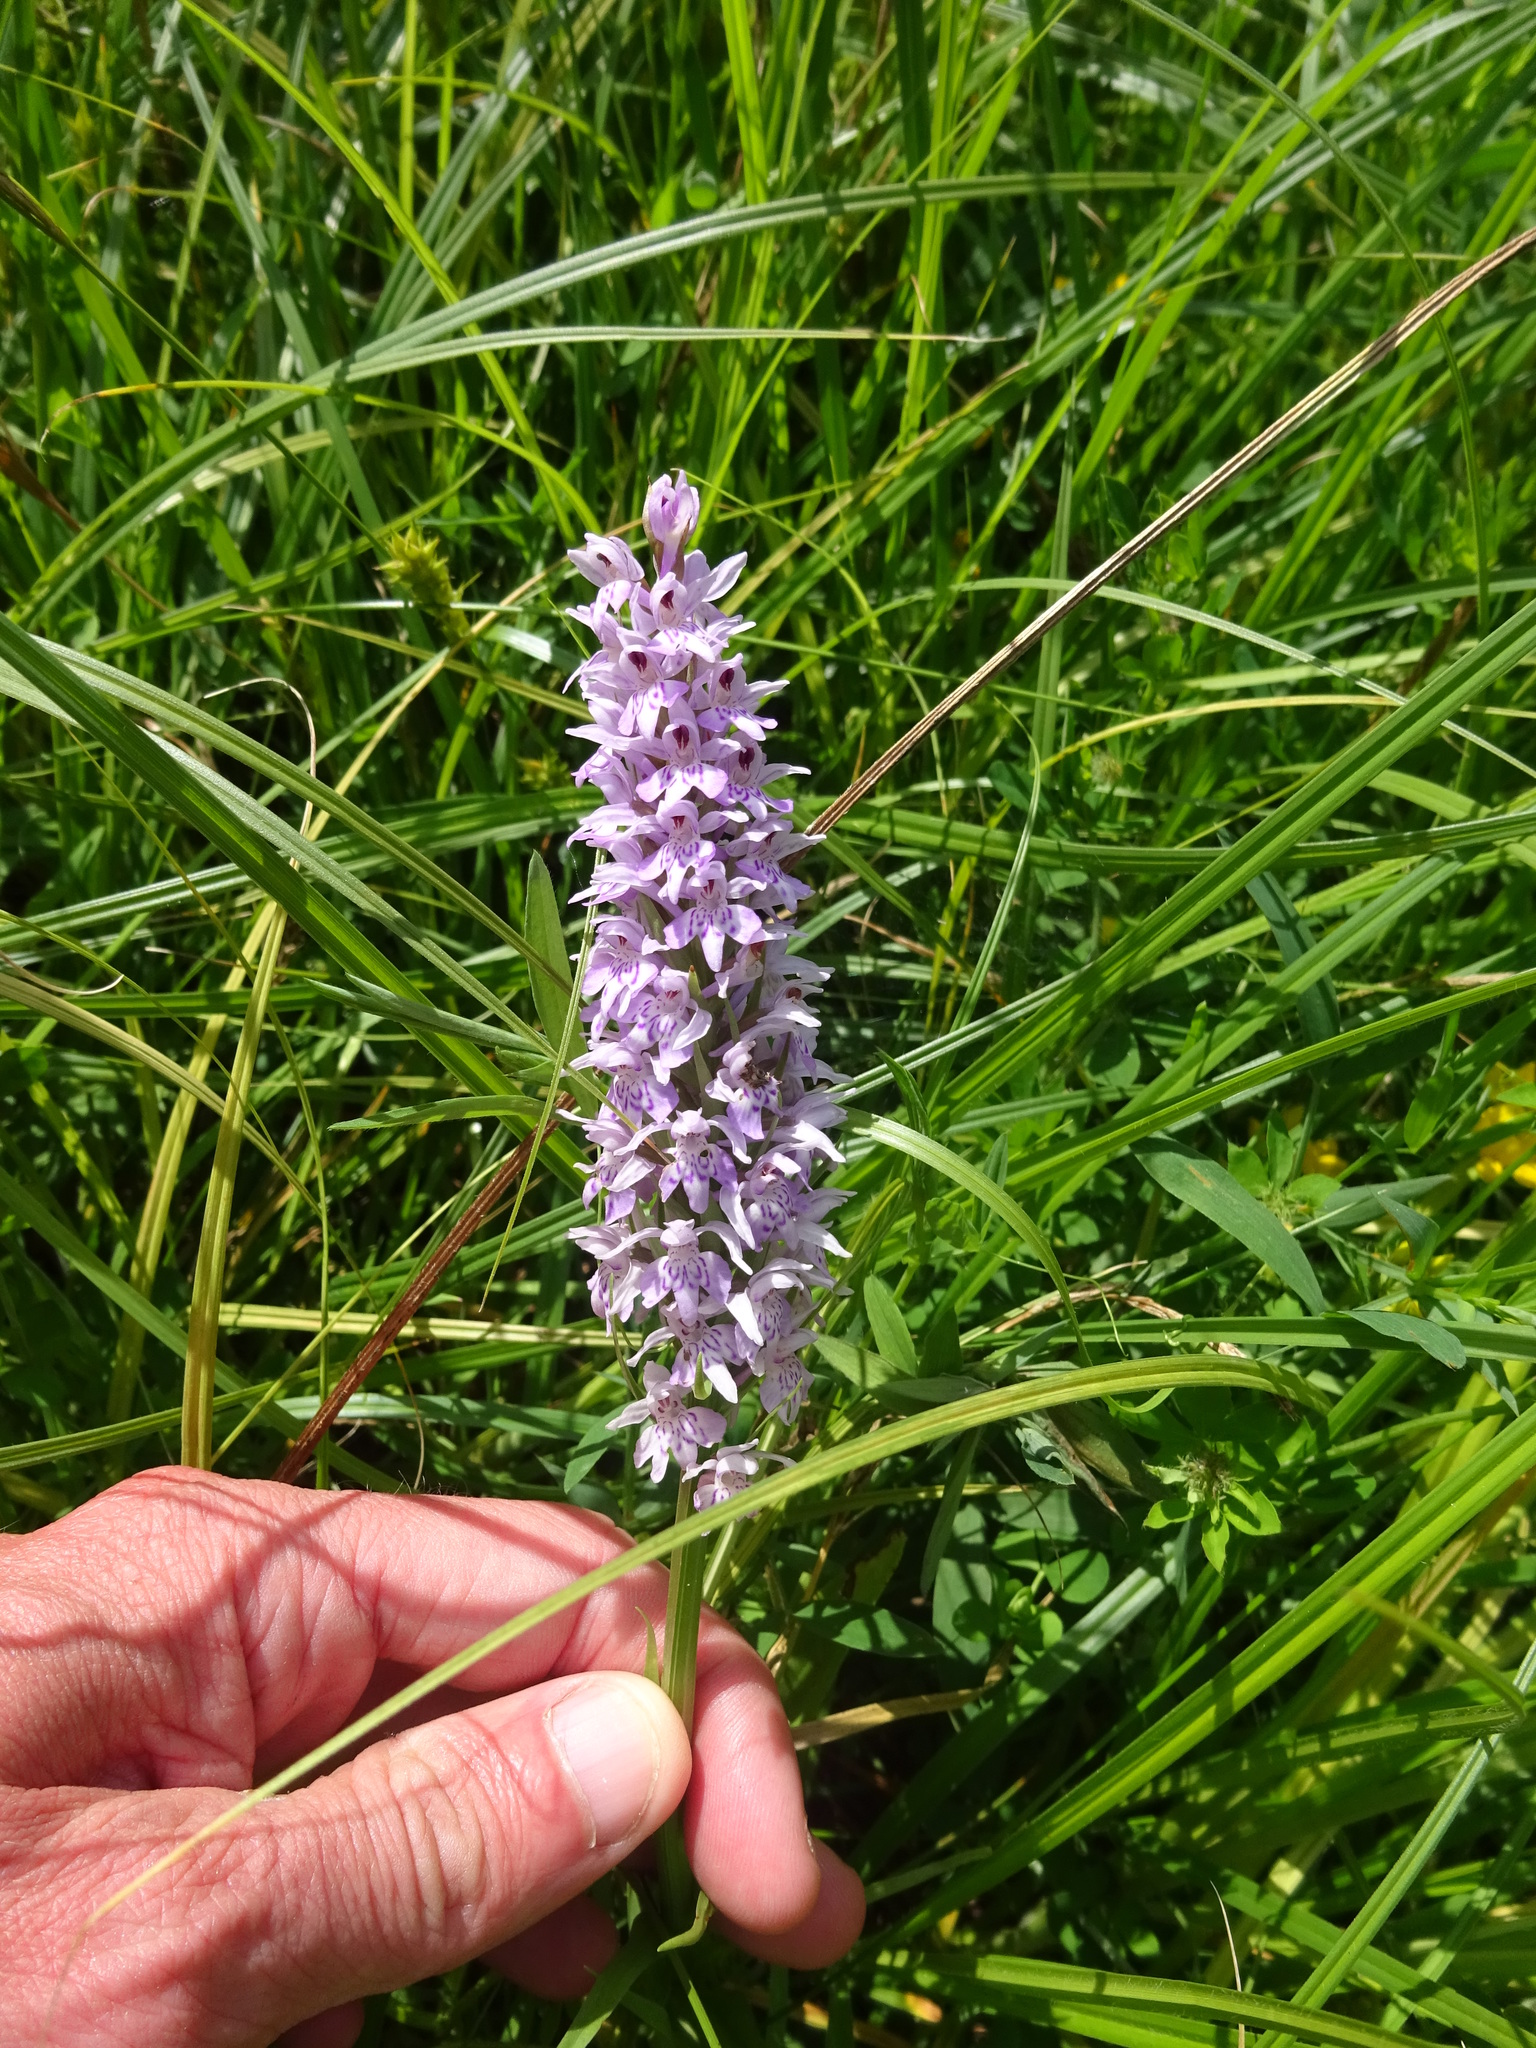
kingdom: Plantae
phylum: Tracheophyta
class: Liliopsida
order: Asparagales
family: Orchidaceae
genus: Dactylorhiza
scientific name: Dactylorhiza maculata
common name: Heath spotted-orchid
